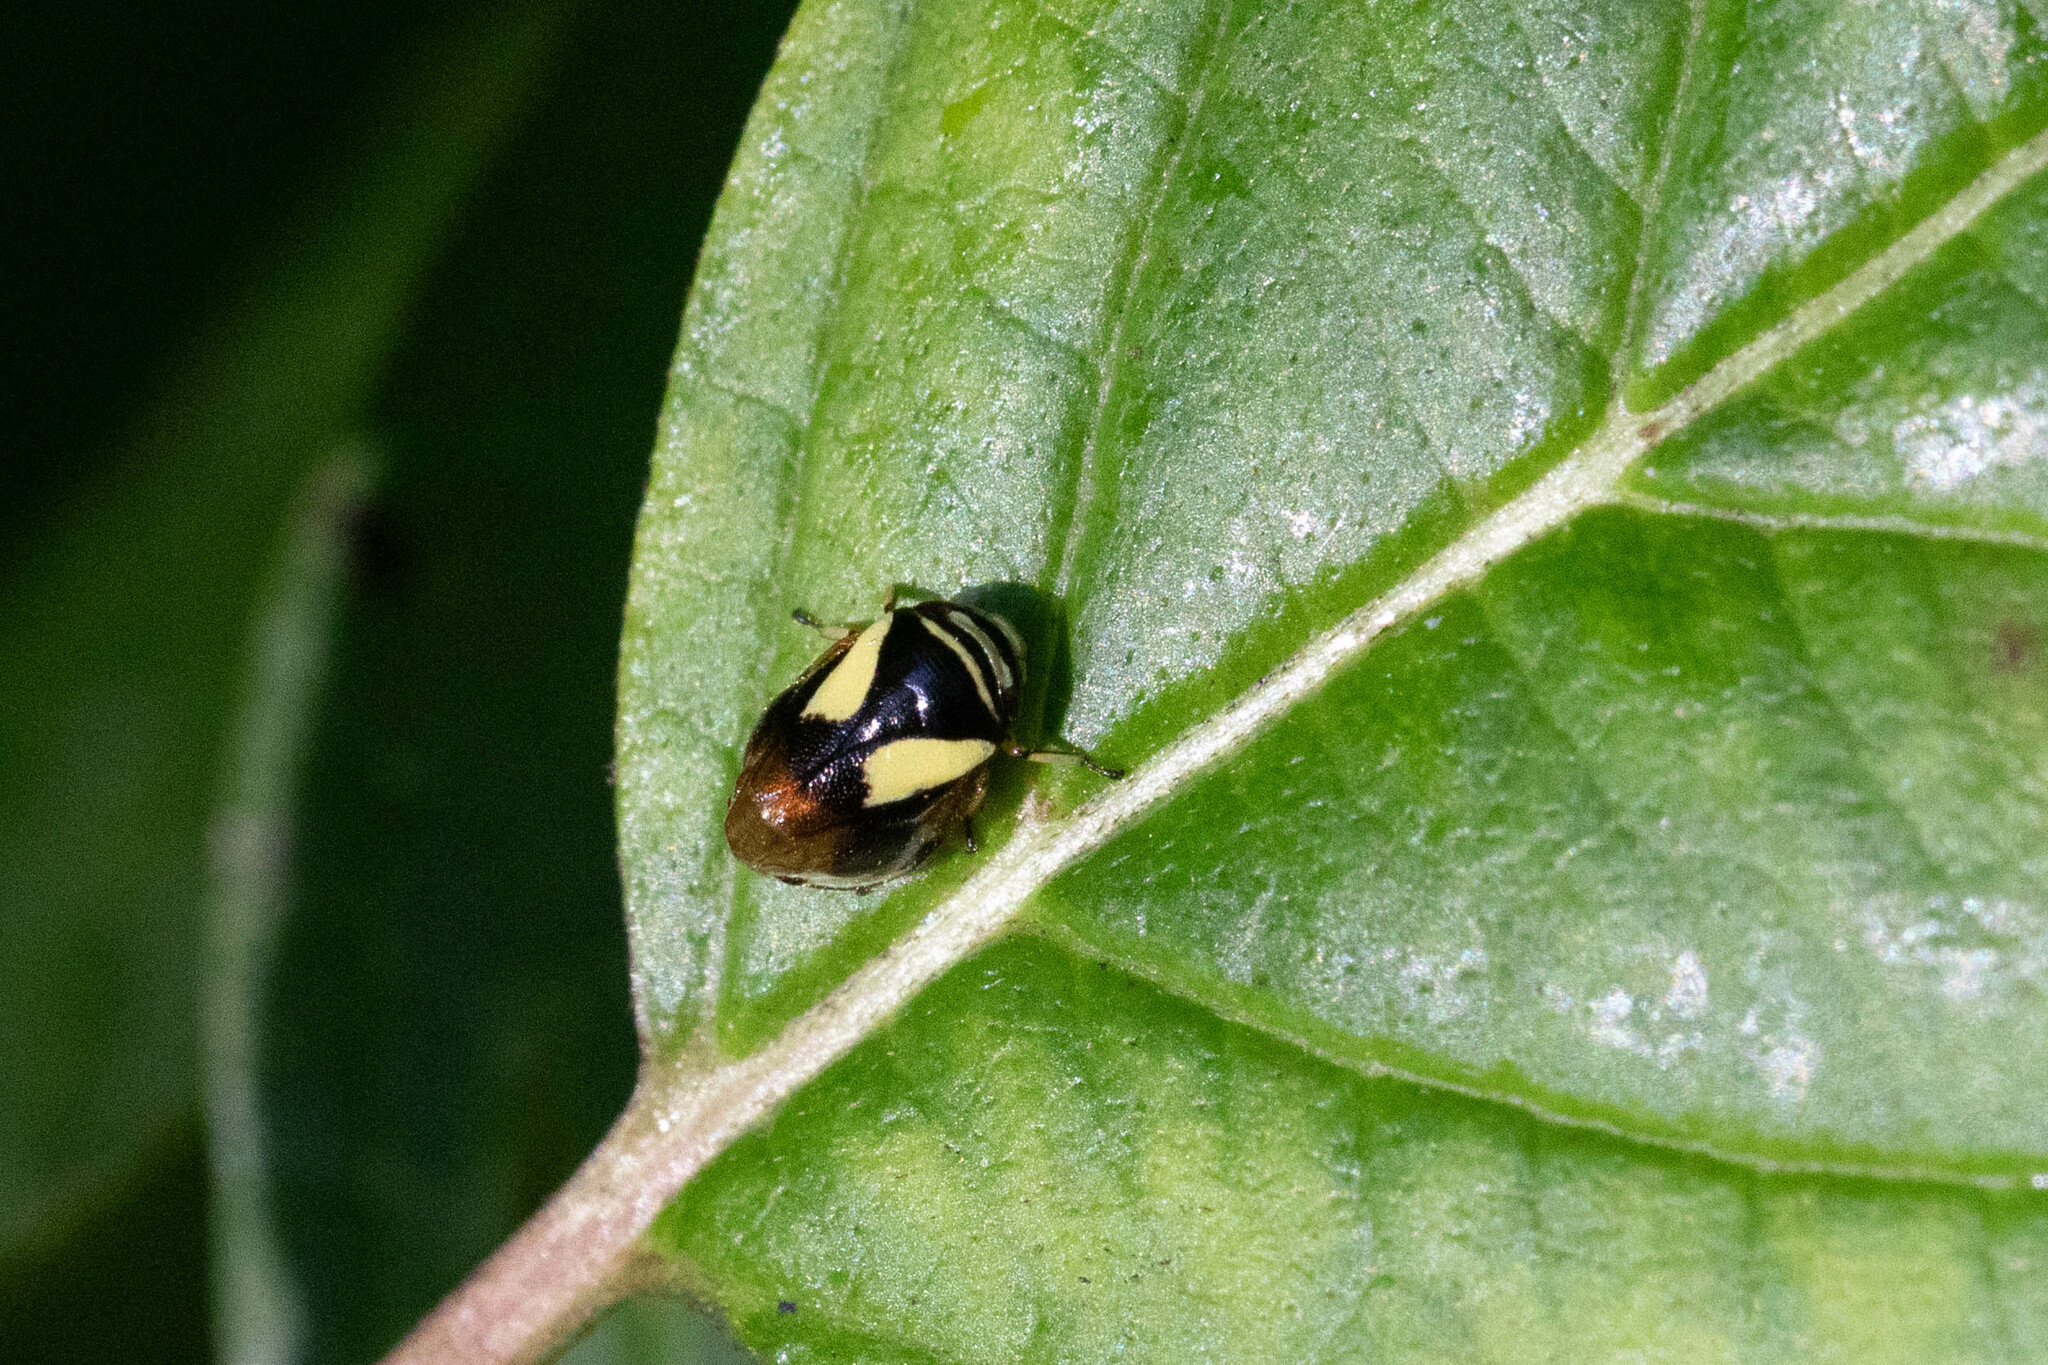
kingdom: Animalia
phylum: Arthropoda
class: Insecta
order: Hemiptera
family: Clastopteridae
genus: Clastoptera
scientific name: Clastoptera proteus
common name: Dogwood spittlebug
